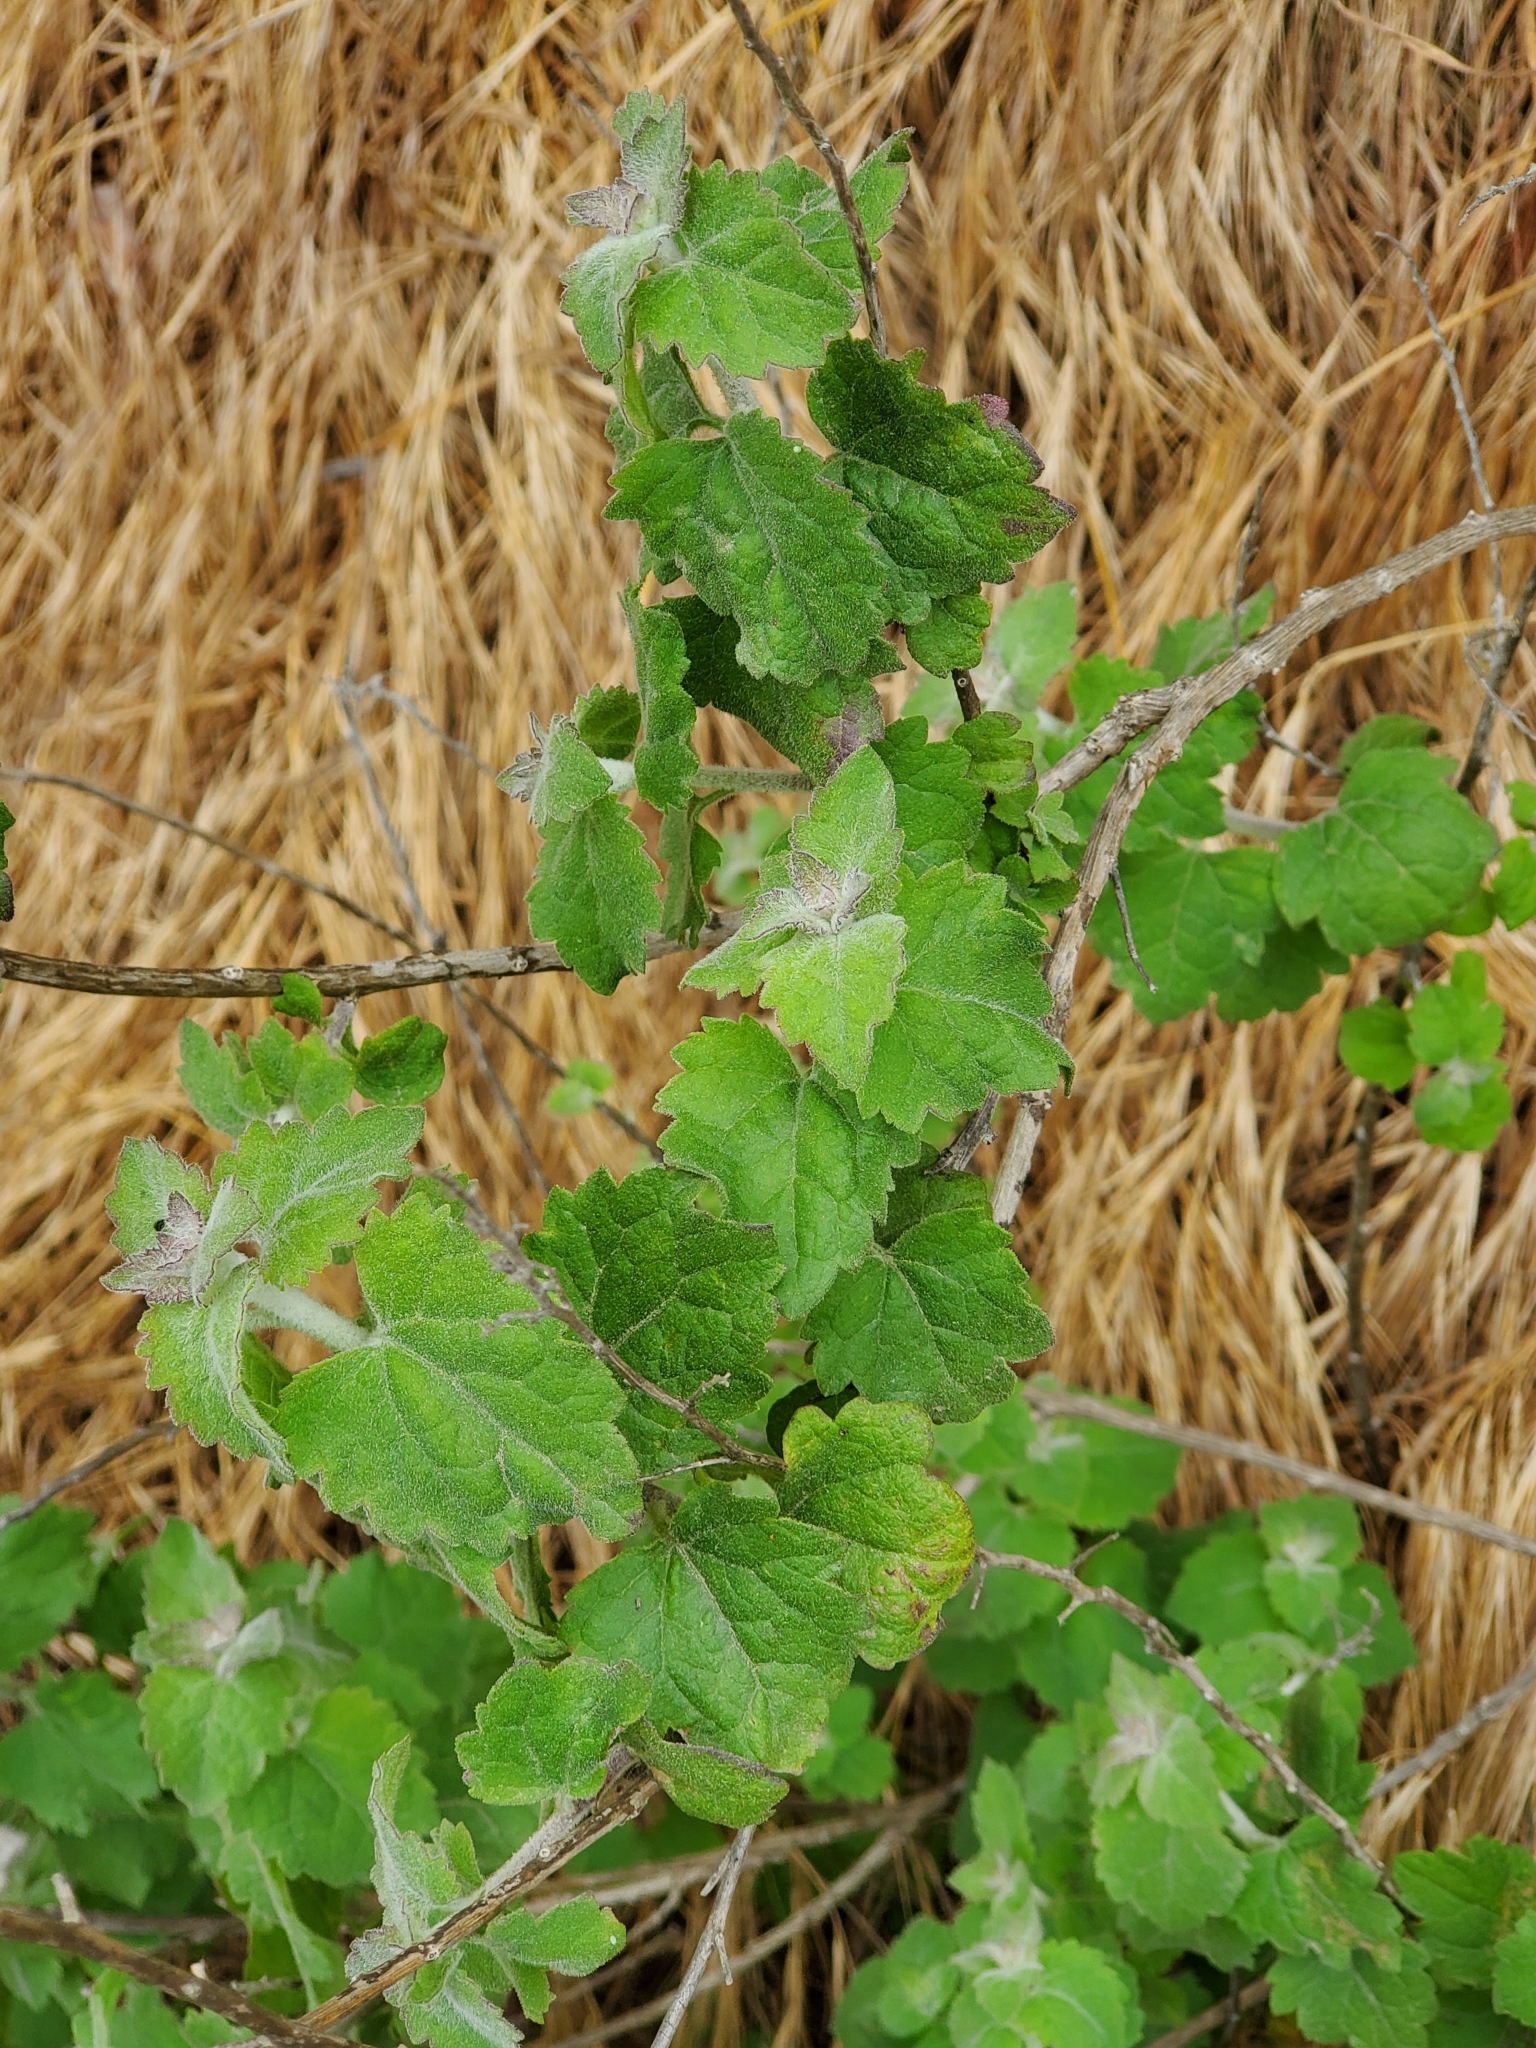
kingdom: Plantae
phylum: Tracheophyta
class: Magnoliopsida
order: Asterales
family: Asteraceae
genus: Brickellia
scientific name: Brickellia californica
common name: California brickellbush
